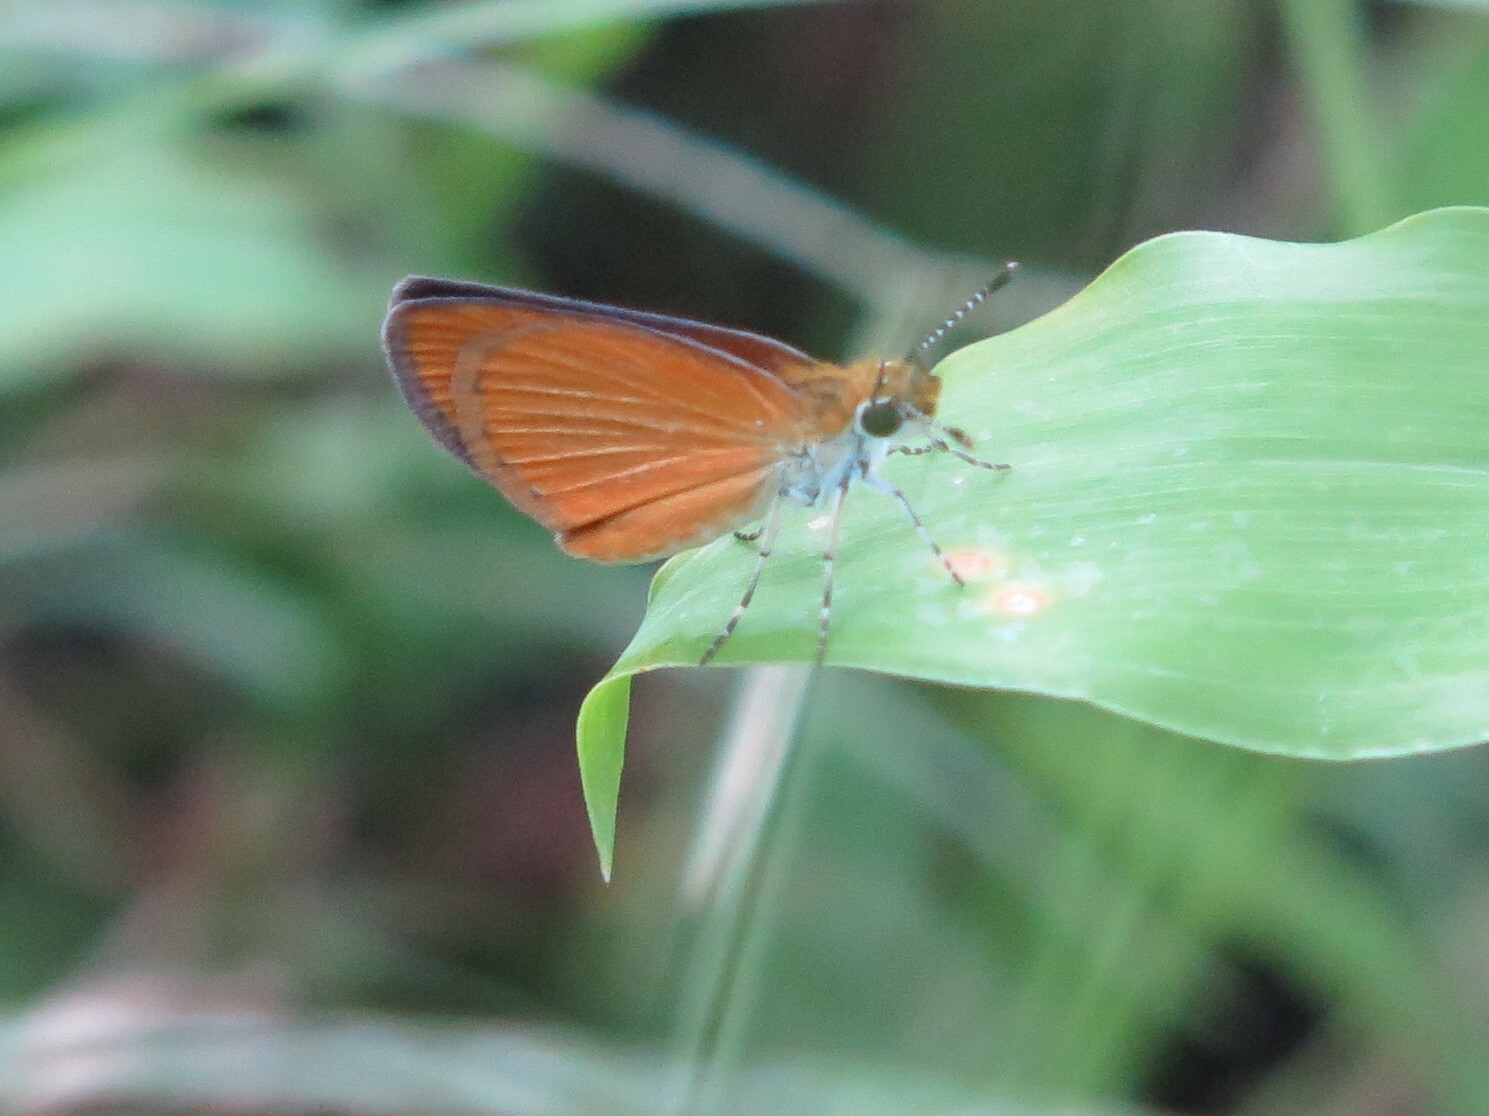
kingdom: Animalia
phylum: Arthropoda
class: Insecta
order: Lepidoptera
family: Hesperiidae
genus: Ancyloxypha
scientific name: Ancyloxypha numitor
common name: Least skipper
